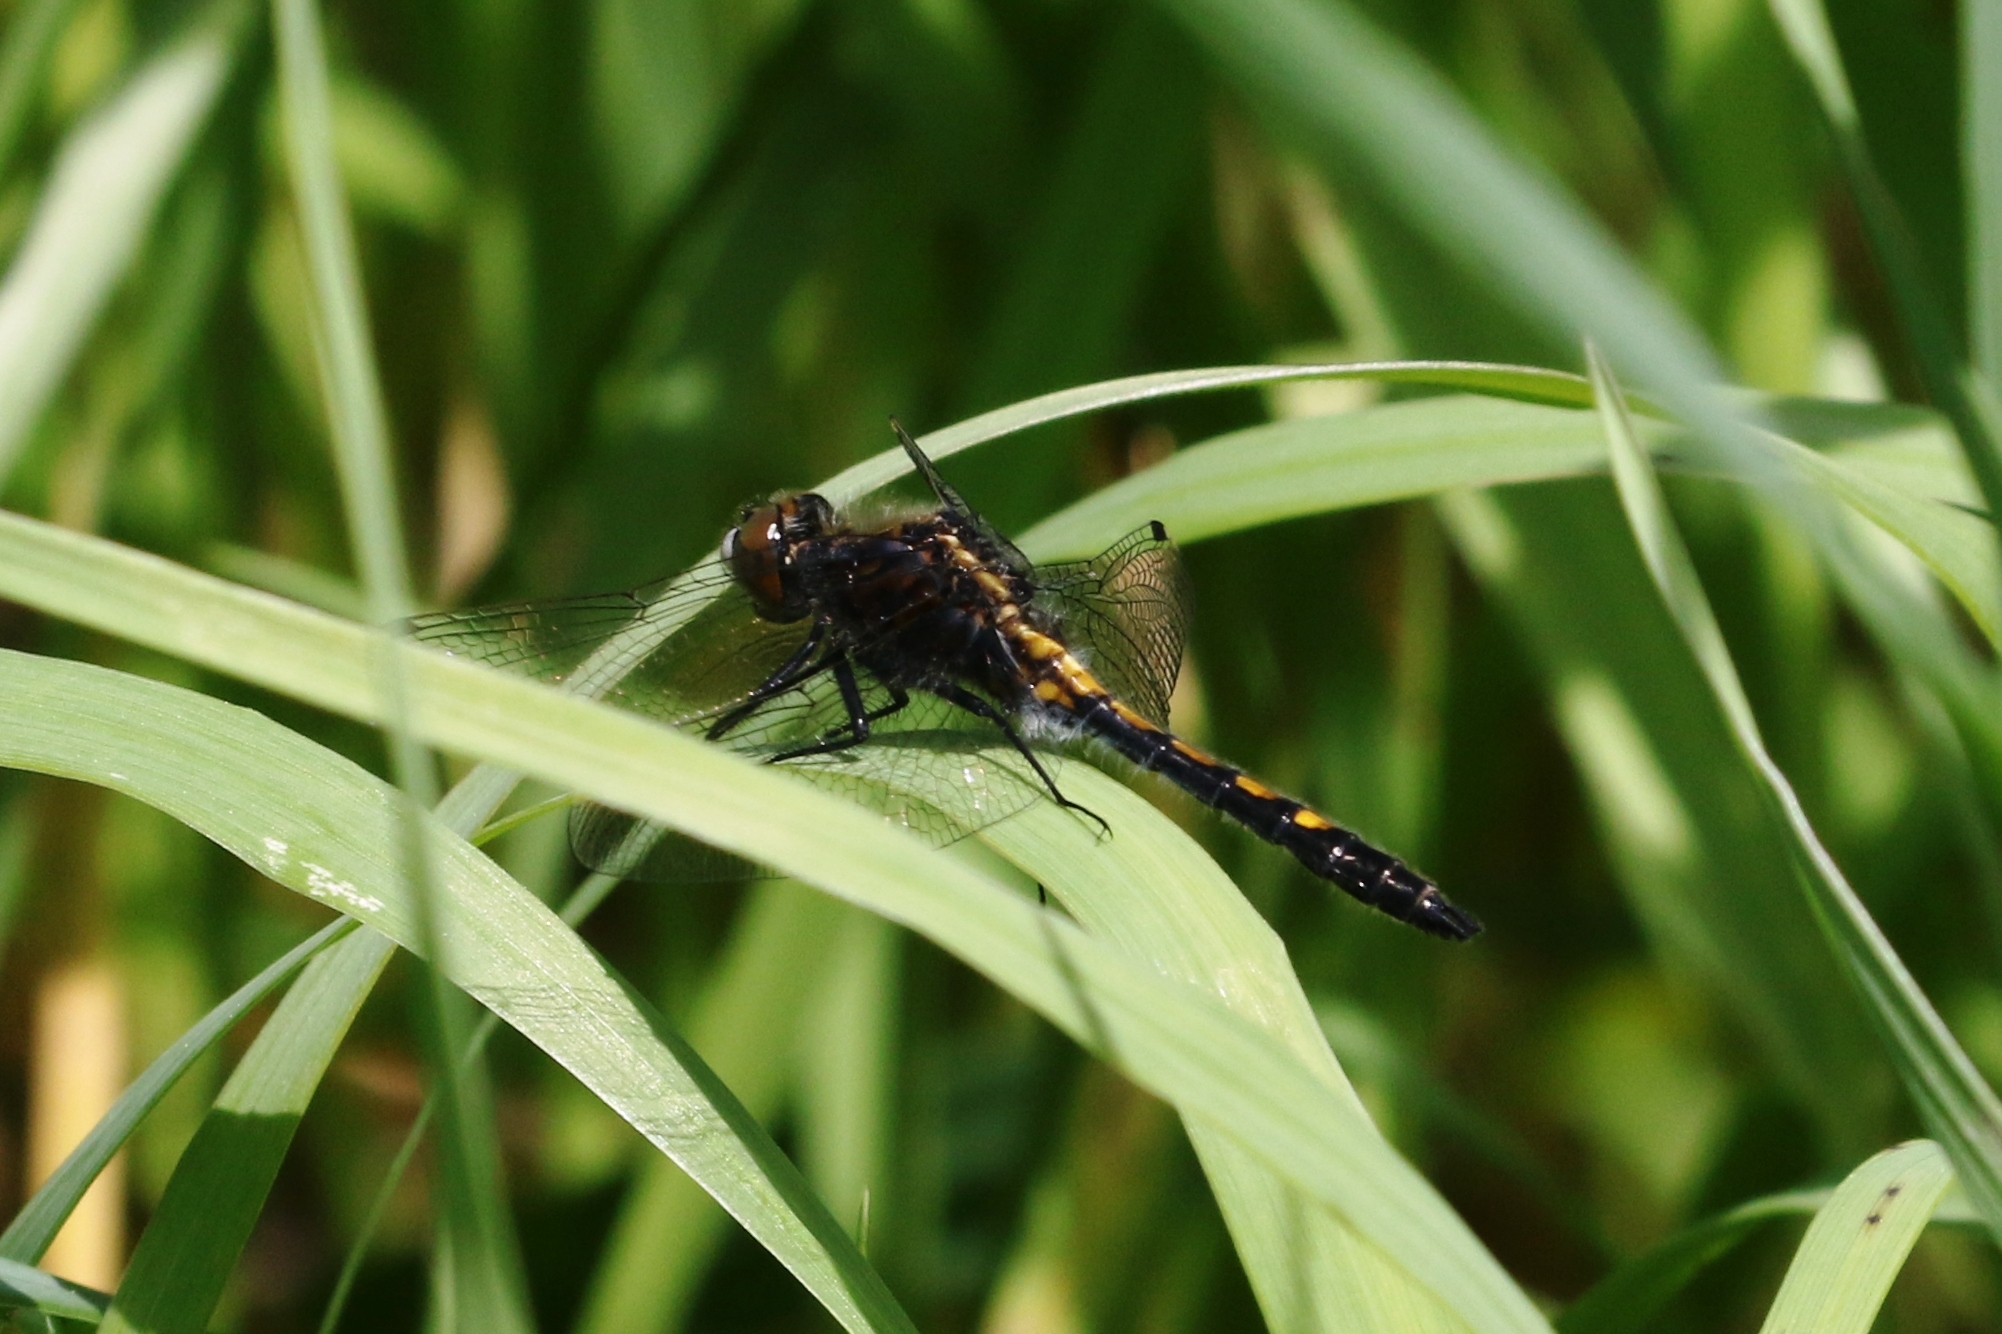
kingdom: Animalia
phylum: Arthropoda
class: Insecta
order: Odonata
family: Libellulidae
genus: Leucorrhinia
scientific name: Leucorrhinia intacta
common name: Dot-tailed whiteface
